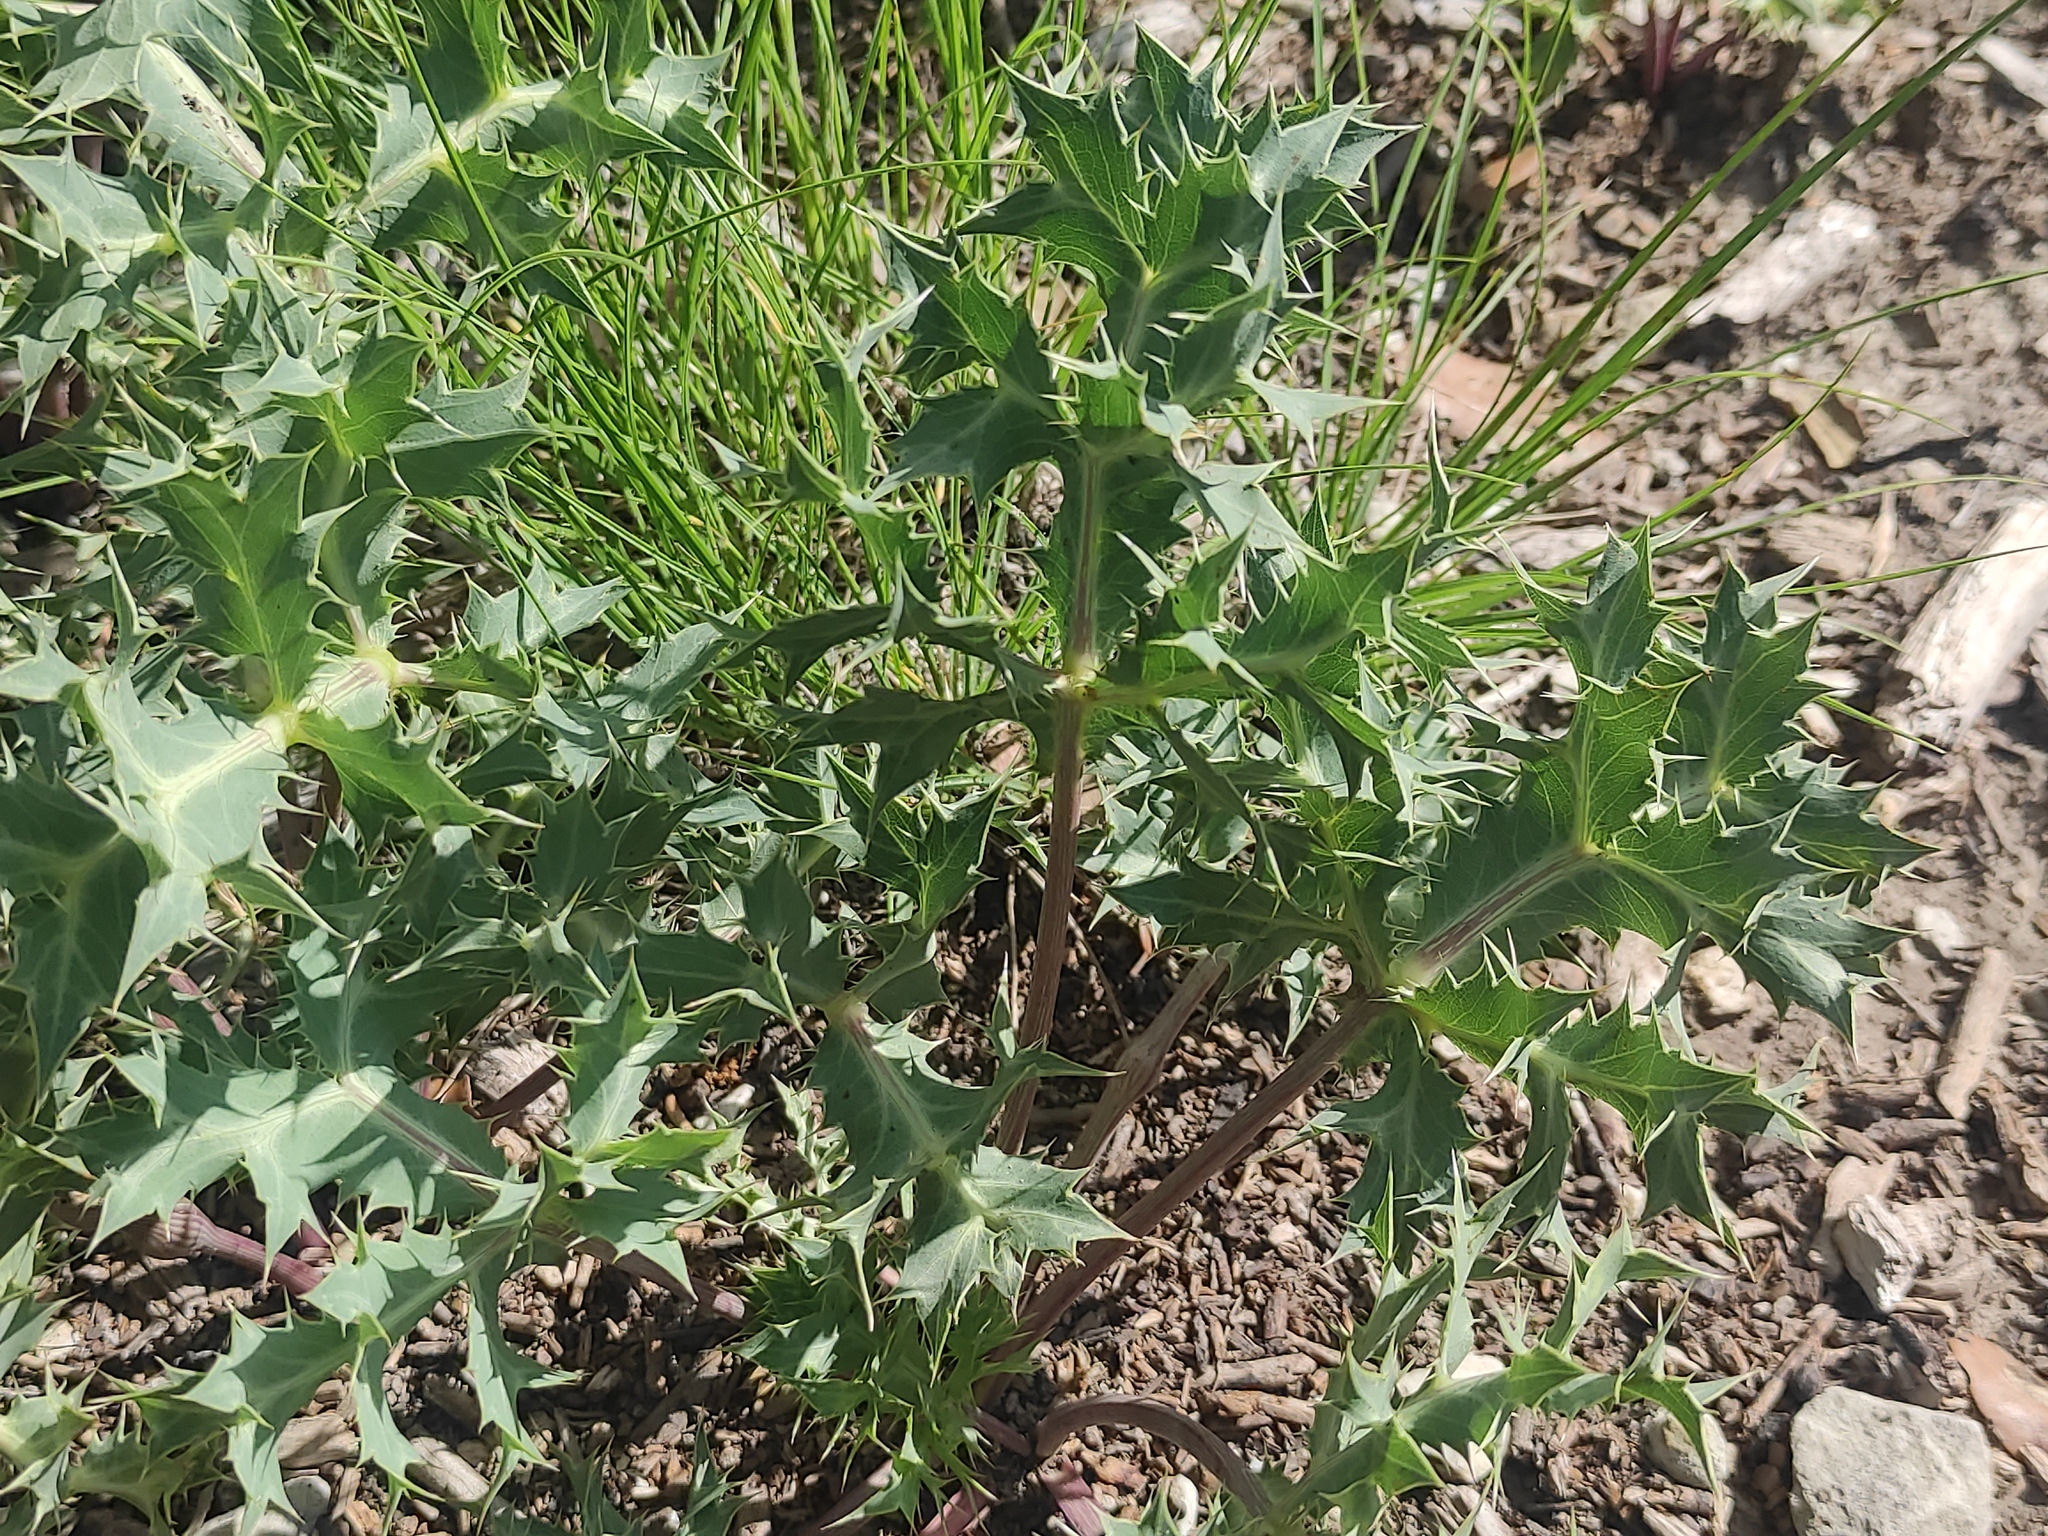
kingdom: Plantae
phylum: Tracheophyta
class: Magnoliopsida
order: Apiales
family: Apiaceae
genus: Eryngium
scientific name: Eryngium campestre
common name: Field eryngo
